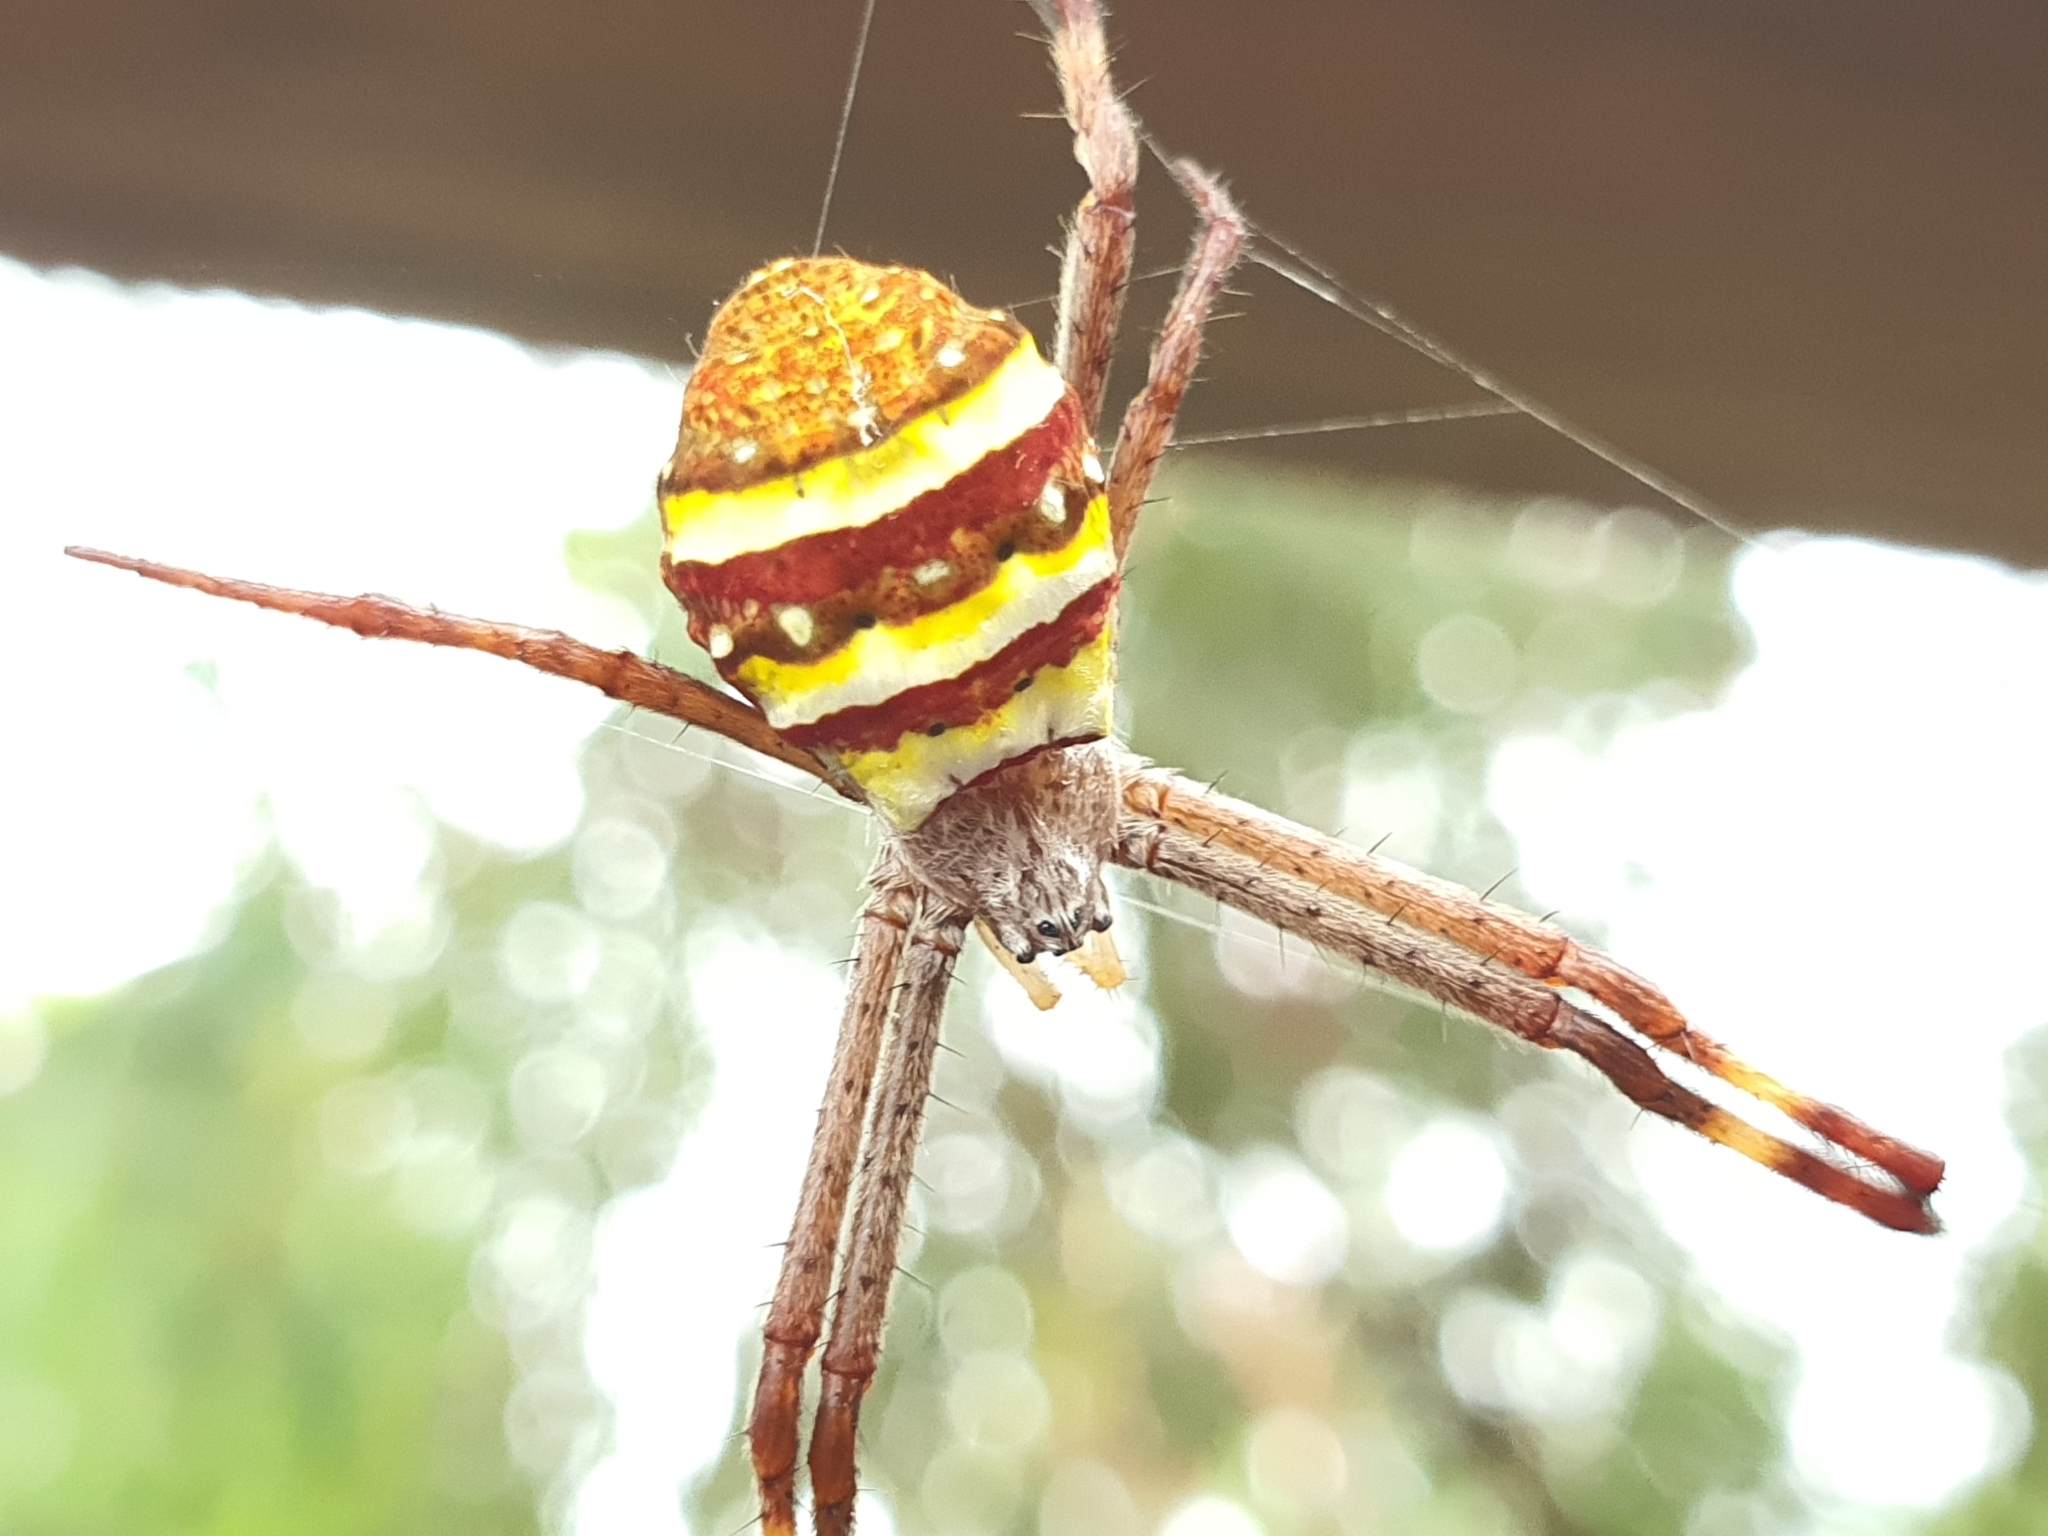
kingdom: Animalia
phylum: Arthropoda
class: Arachnida
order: Araneae
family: Araneidae
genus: Argiope
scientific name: Argiope keyserlingi
